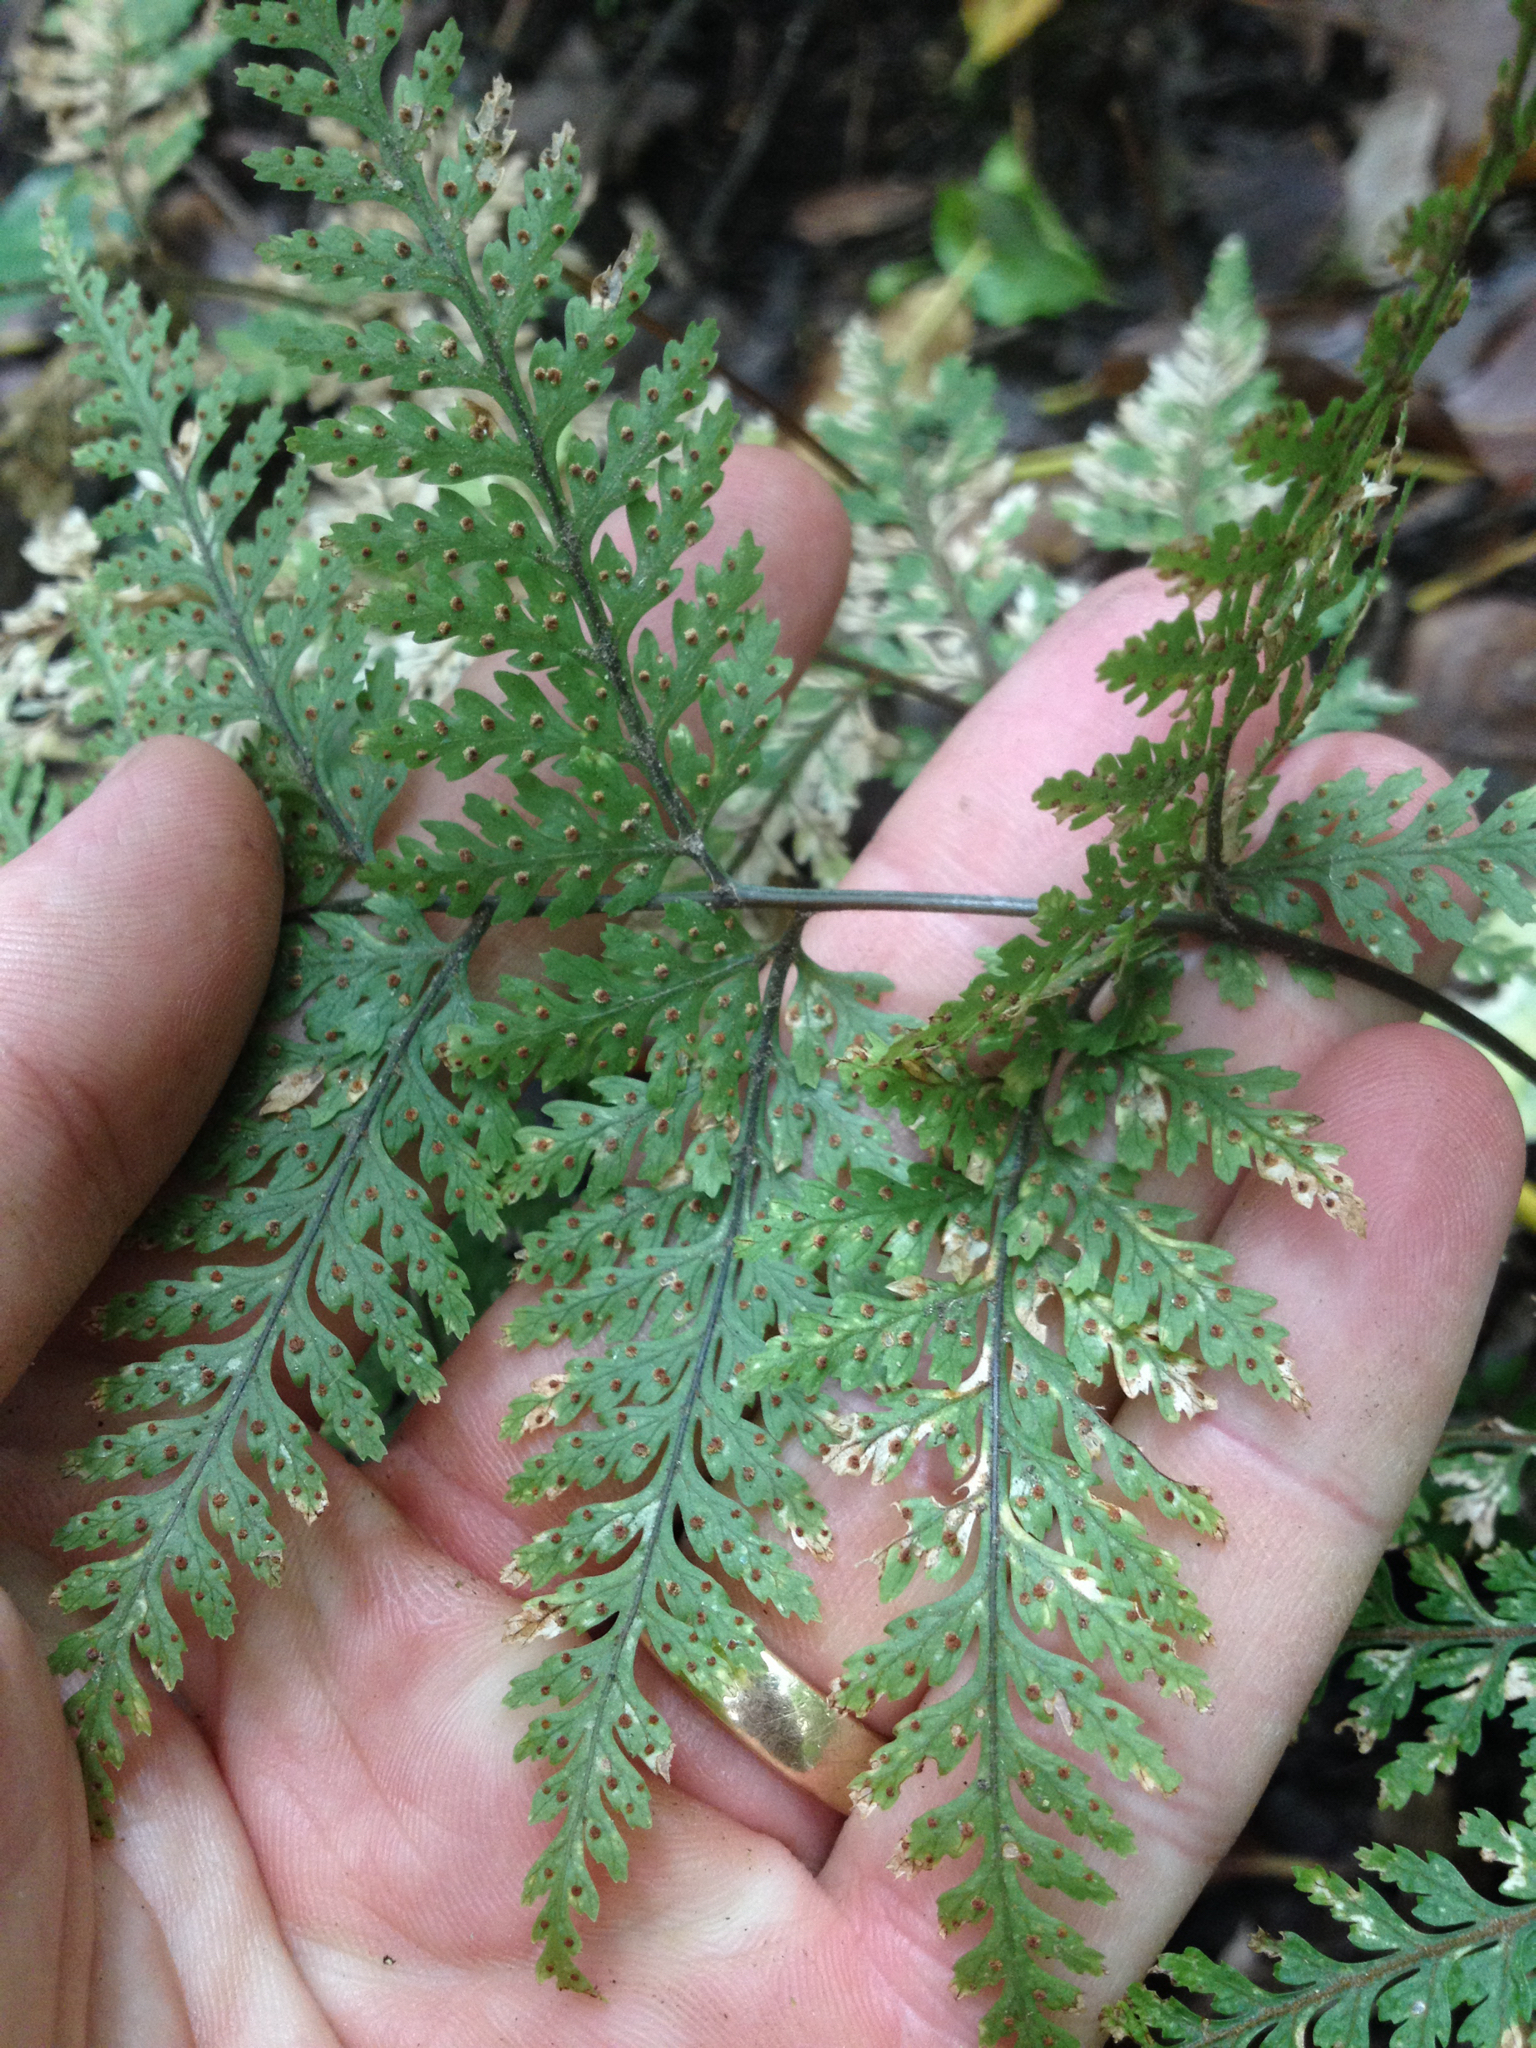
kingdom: Plantae
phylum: Tracheophyta
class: Polypodiopsida
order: Polypodiales
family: Dryopteridaceae
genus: Parapolystichum
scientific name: Parapolystichum glabellum
